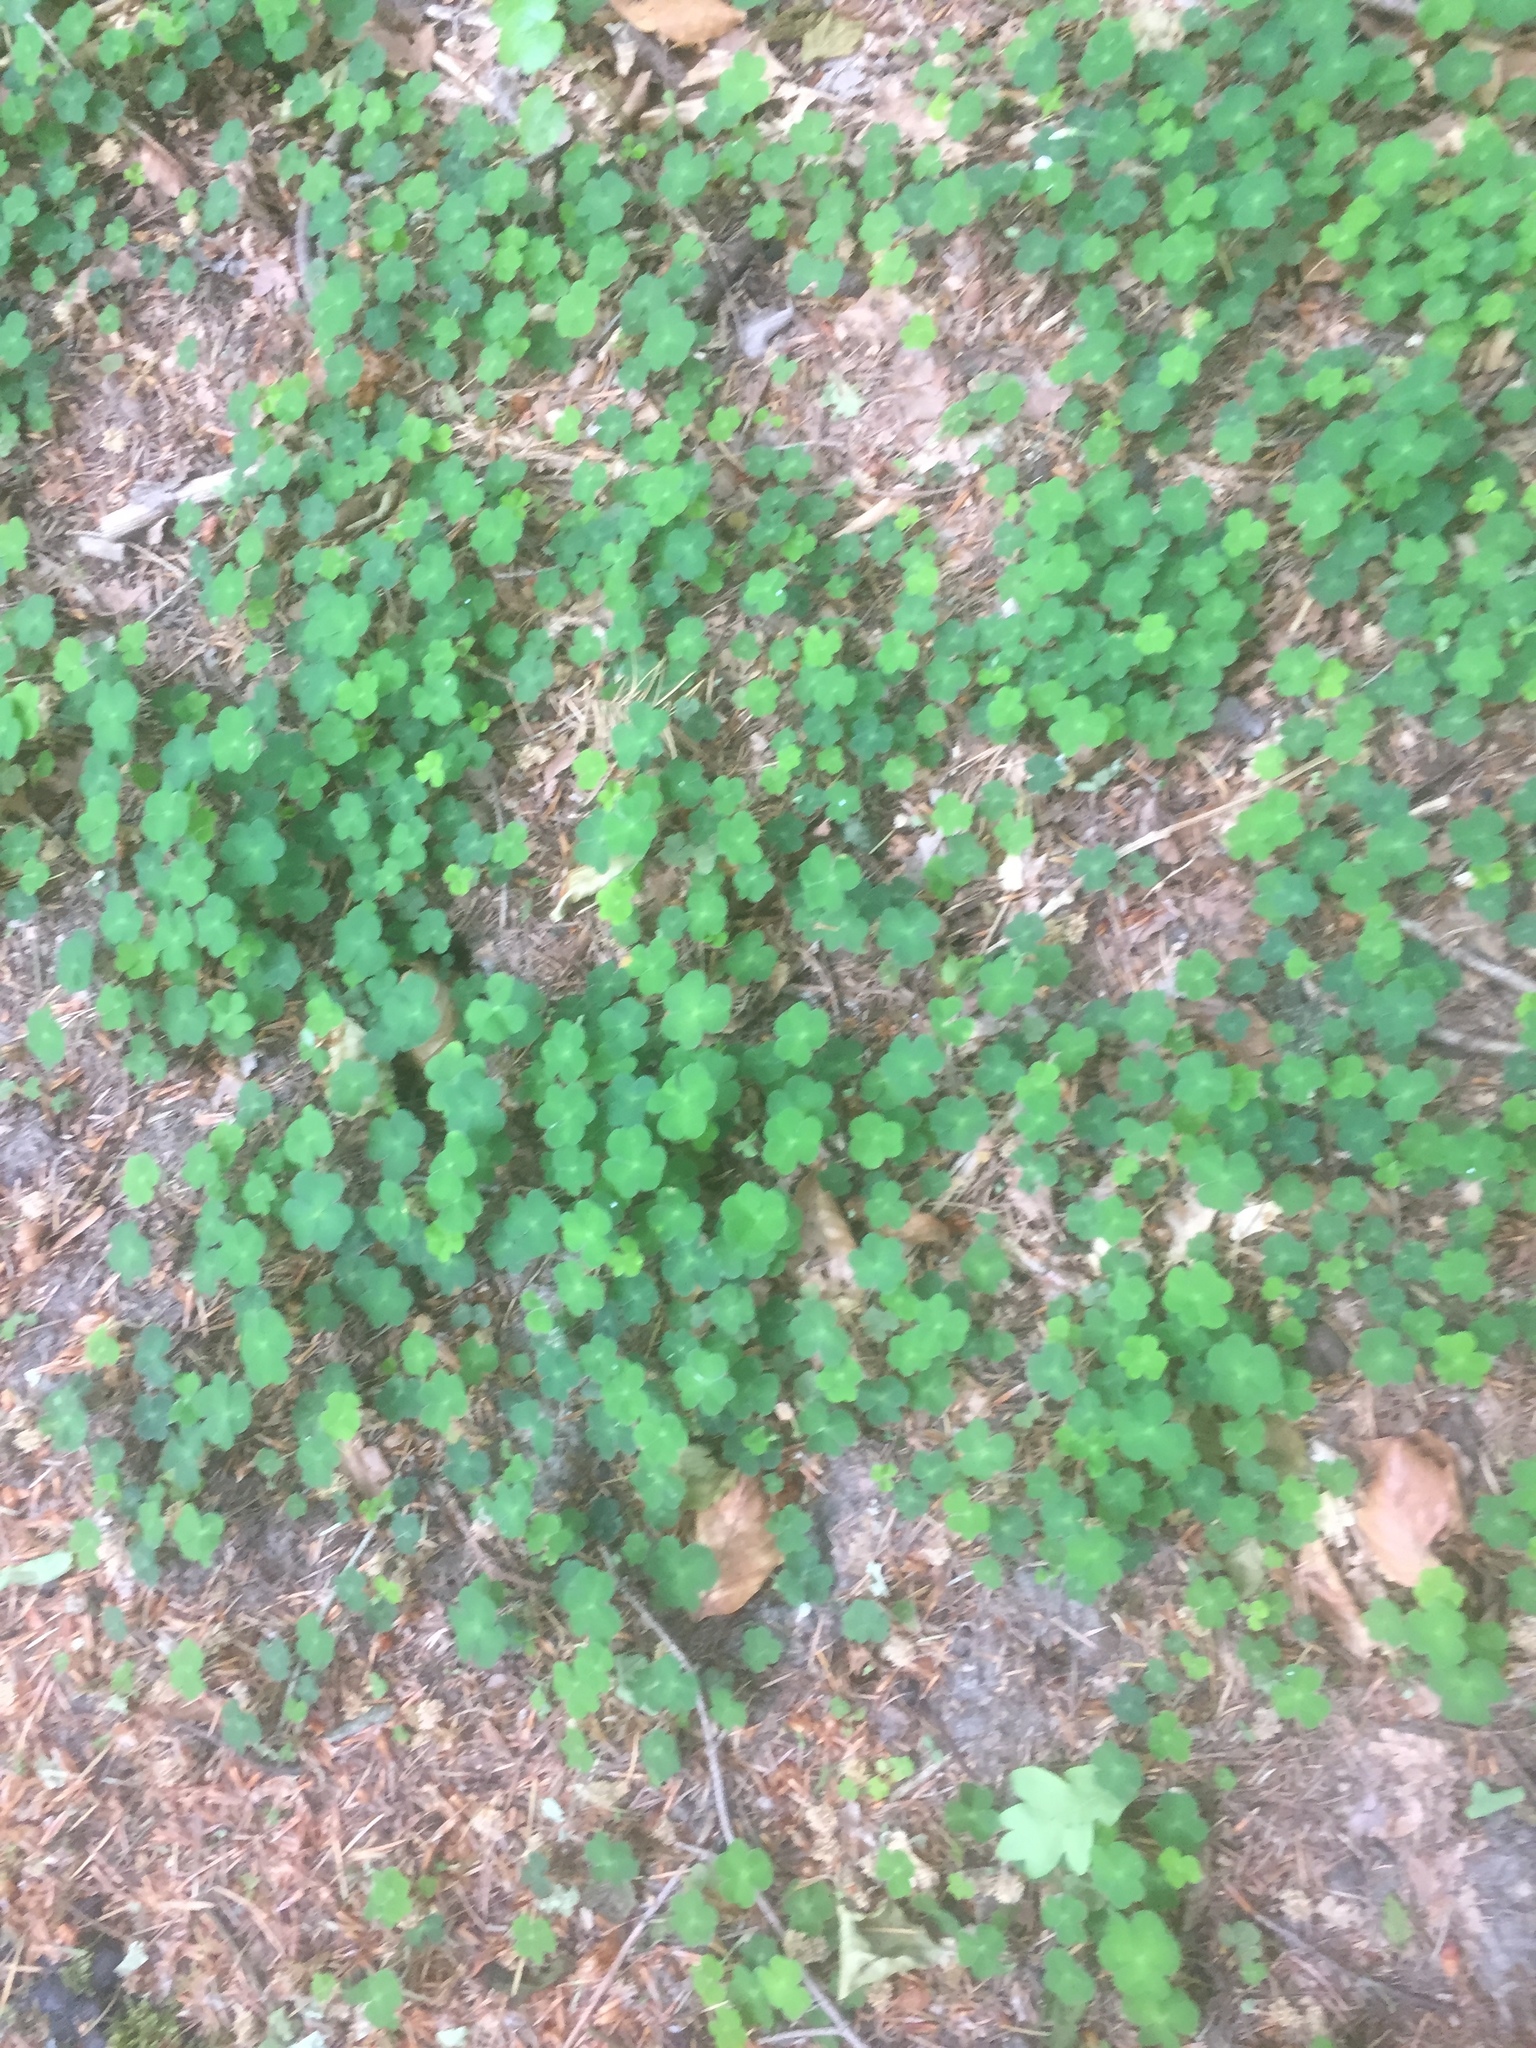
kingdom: Plantae
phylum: Tracheophyta
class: Magnoliopsida
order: Oxalidales
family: Oxalidaceae
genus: Oxalis
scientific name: Oxalis acetosella
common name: Wood-sorrel
